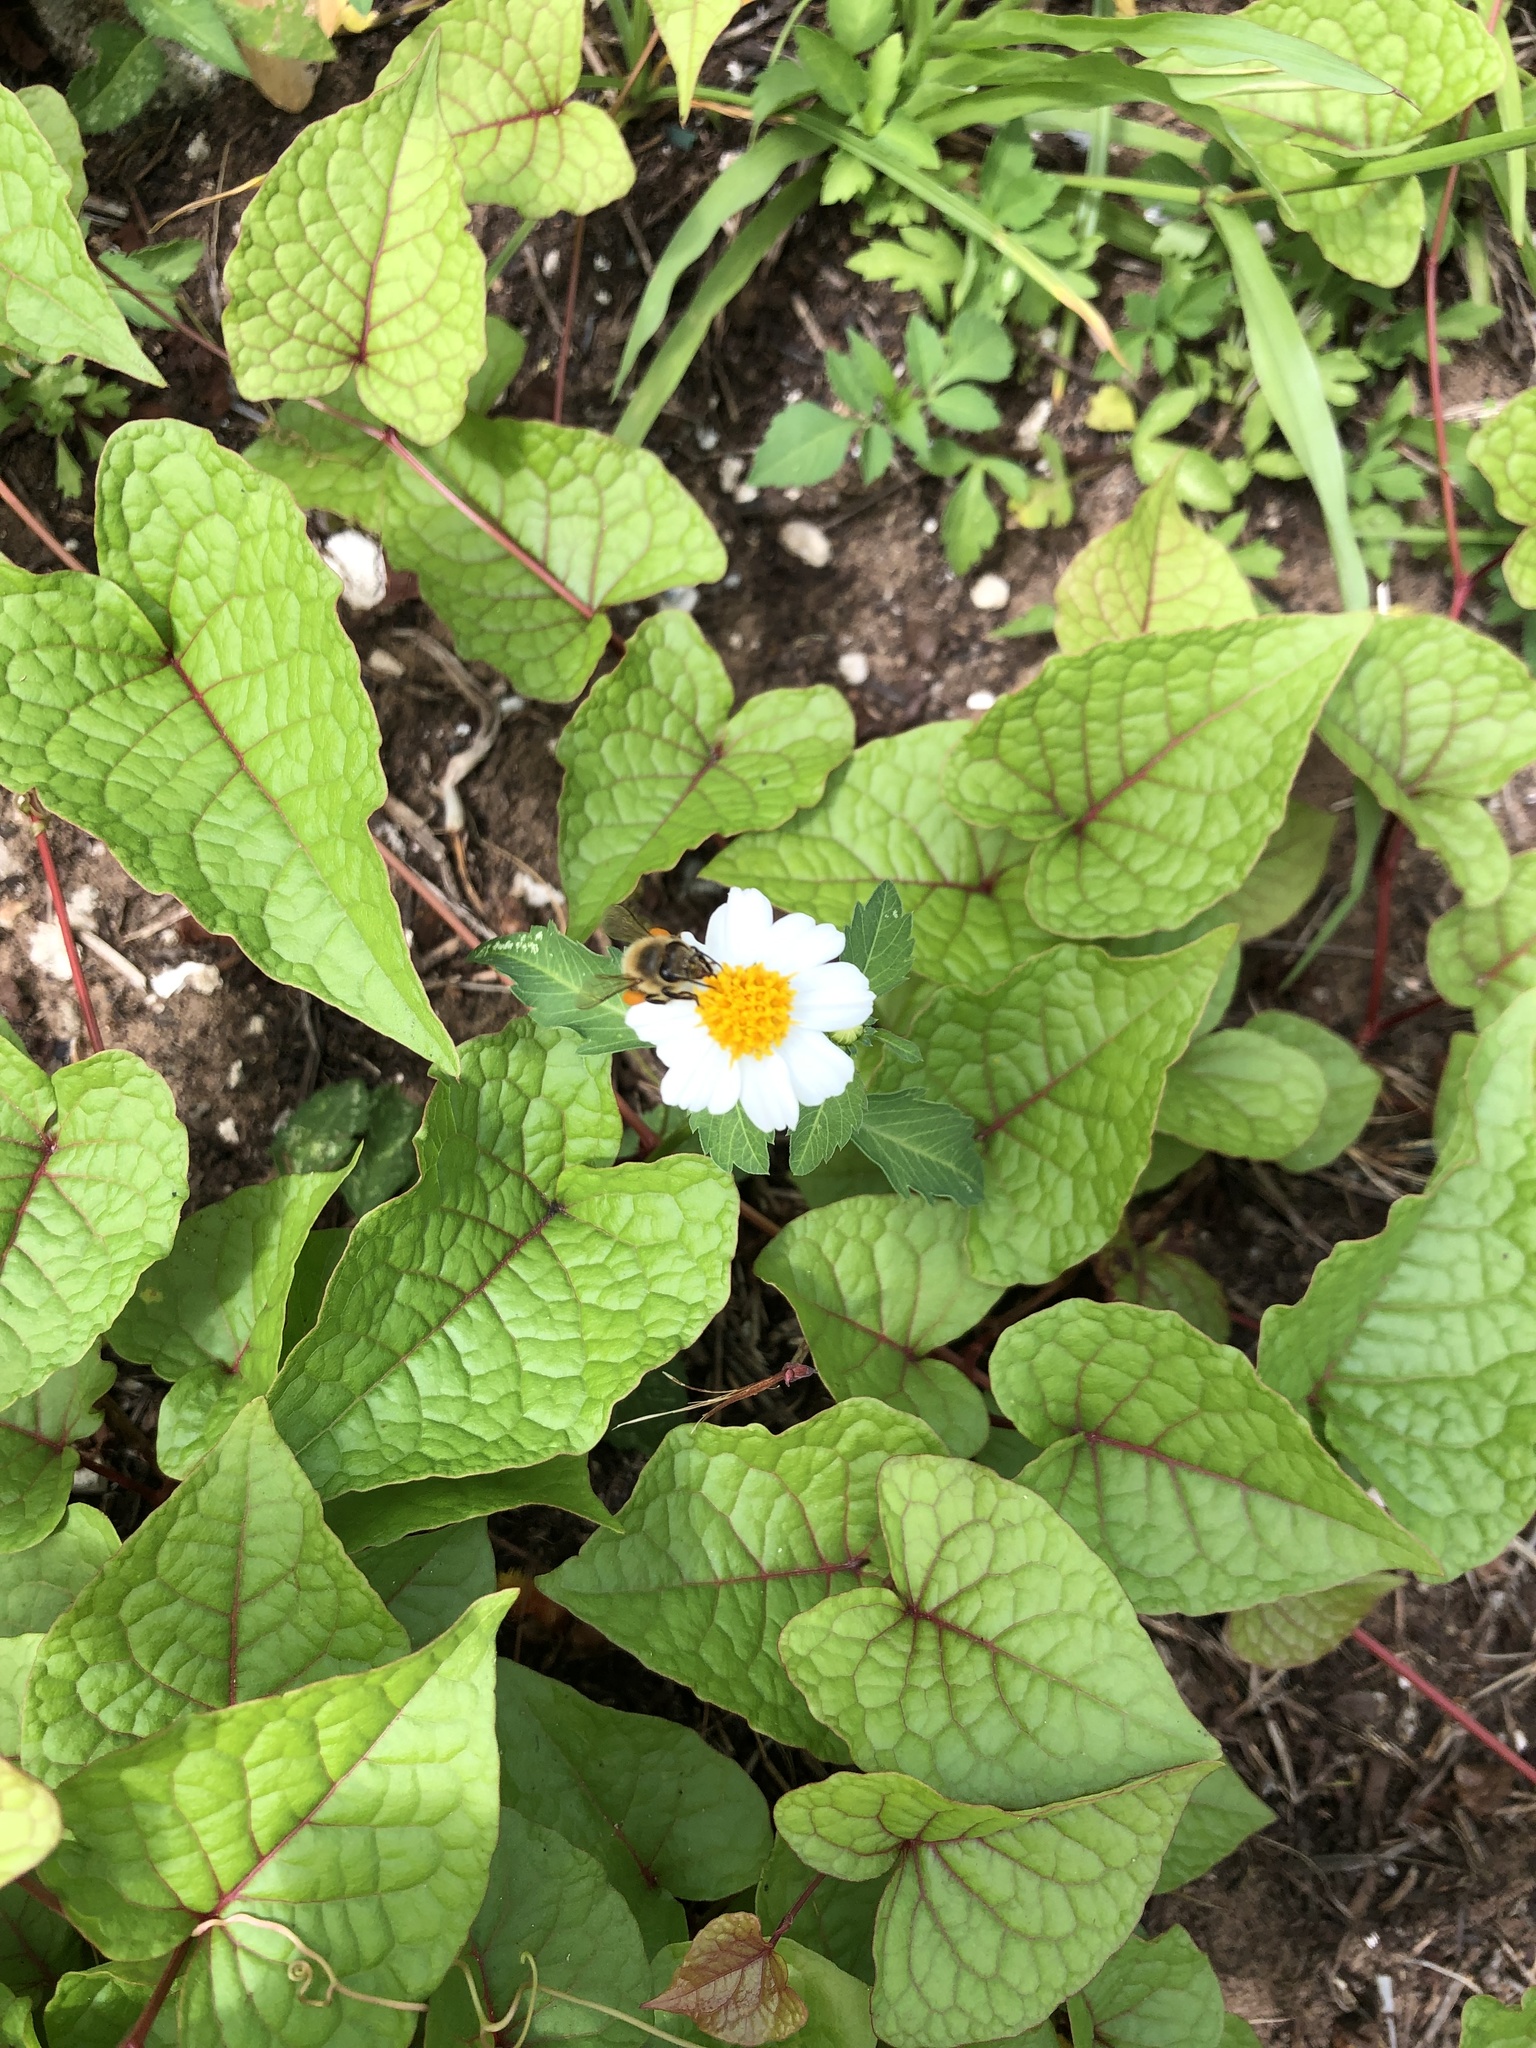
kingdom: Plantae
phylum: Tracheophyta
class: Magnoliopsida
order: Asterales
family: Asteraceae
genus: Bidens
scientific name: Bidens alba
